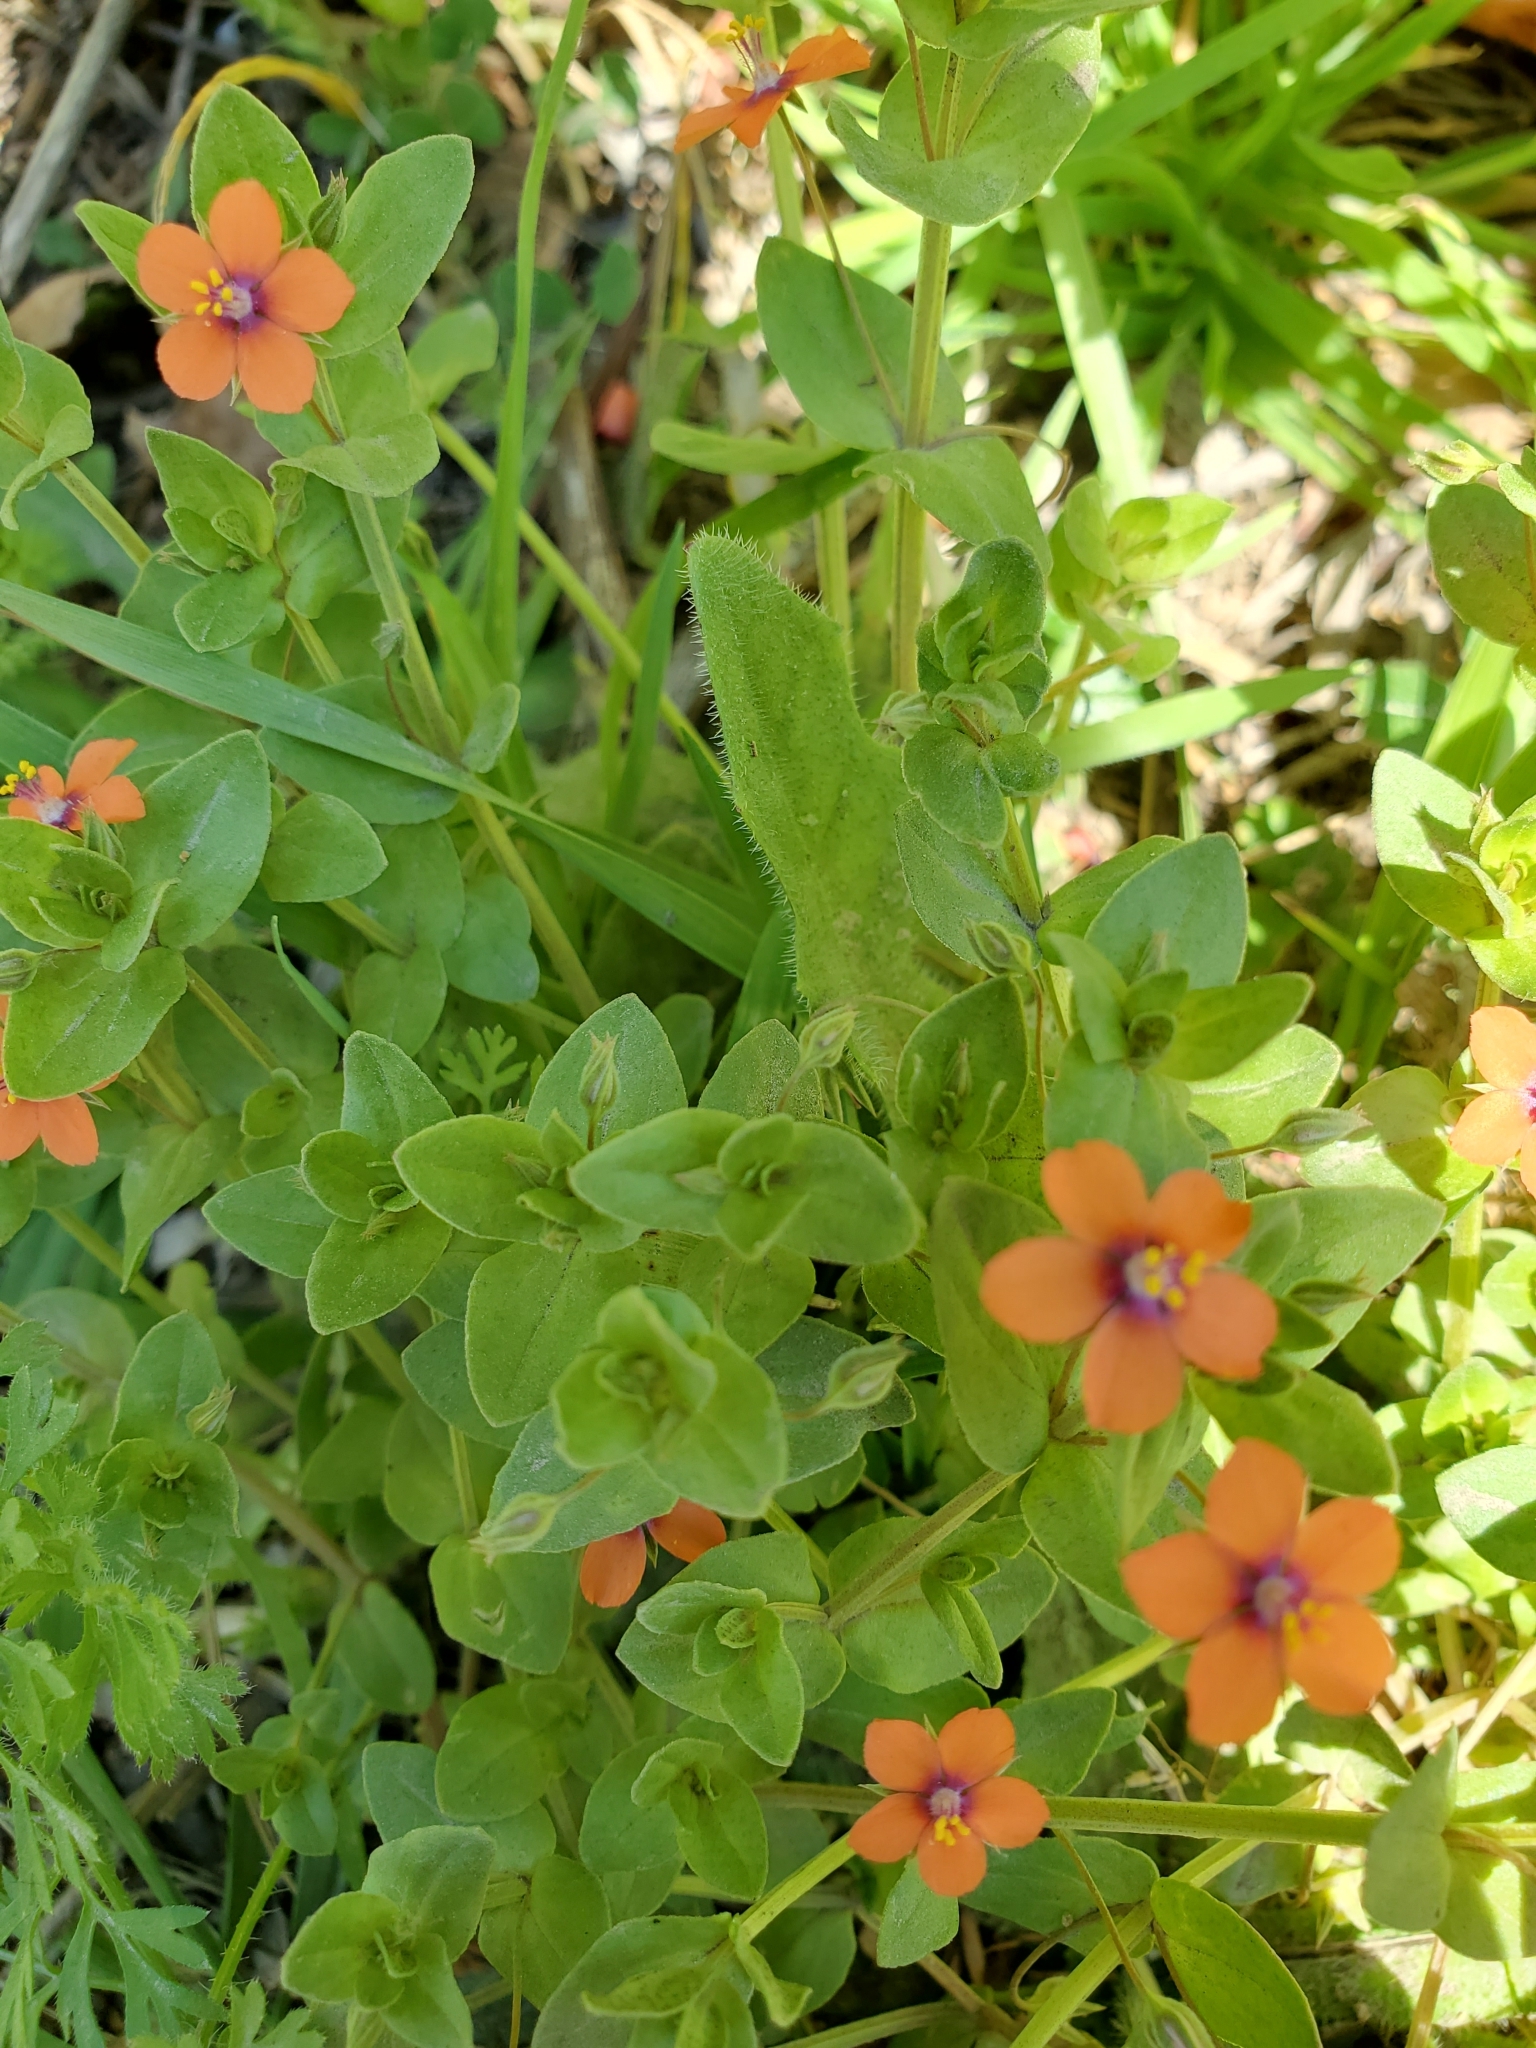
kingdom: Plantae
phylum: Tracheophyta
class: Magnoliopsida
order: Ericales
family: Primulaceae
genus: Lysimachia
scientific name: Lysimachia arvensis
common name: Scarlet pimpernel
